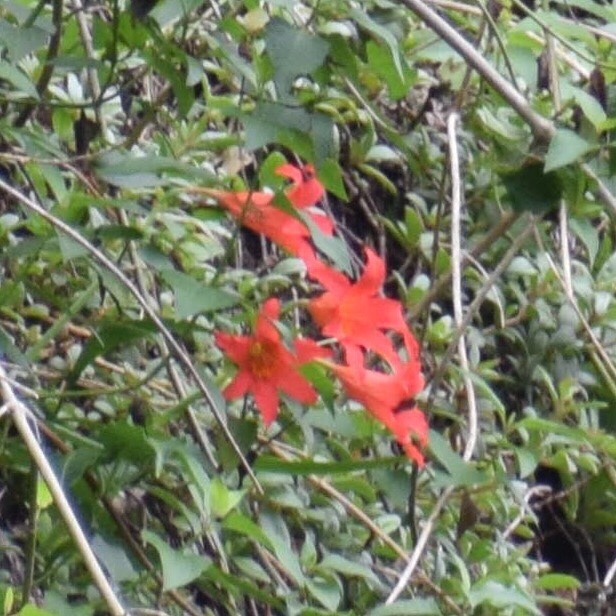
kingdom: Plantae
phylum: Tracheophyta
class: Liliopsida
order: Asparagales
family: Amaryllidaceae
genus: Cyrtanthus
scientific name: Cyrtanthus sanguineus
